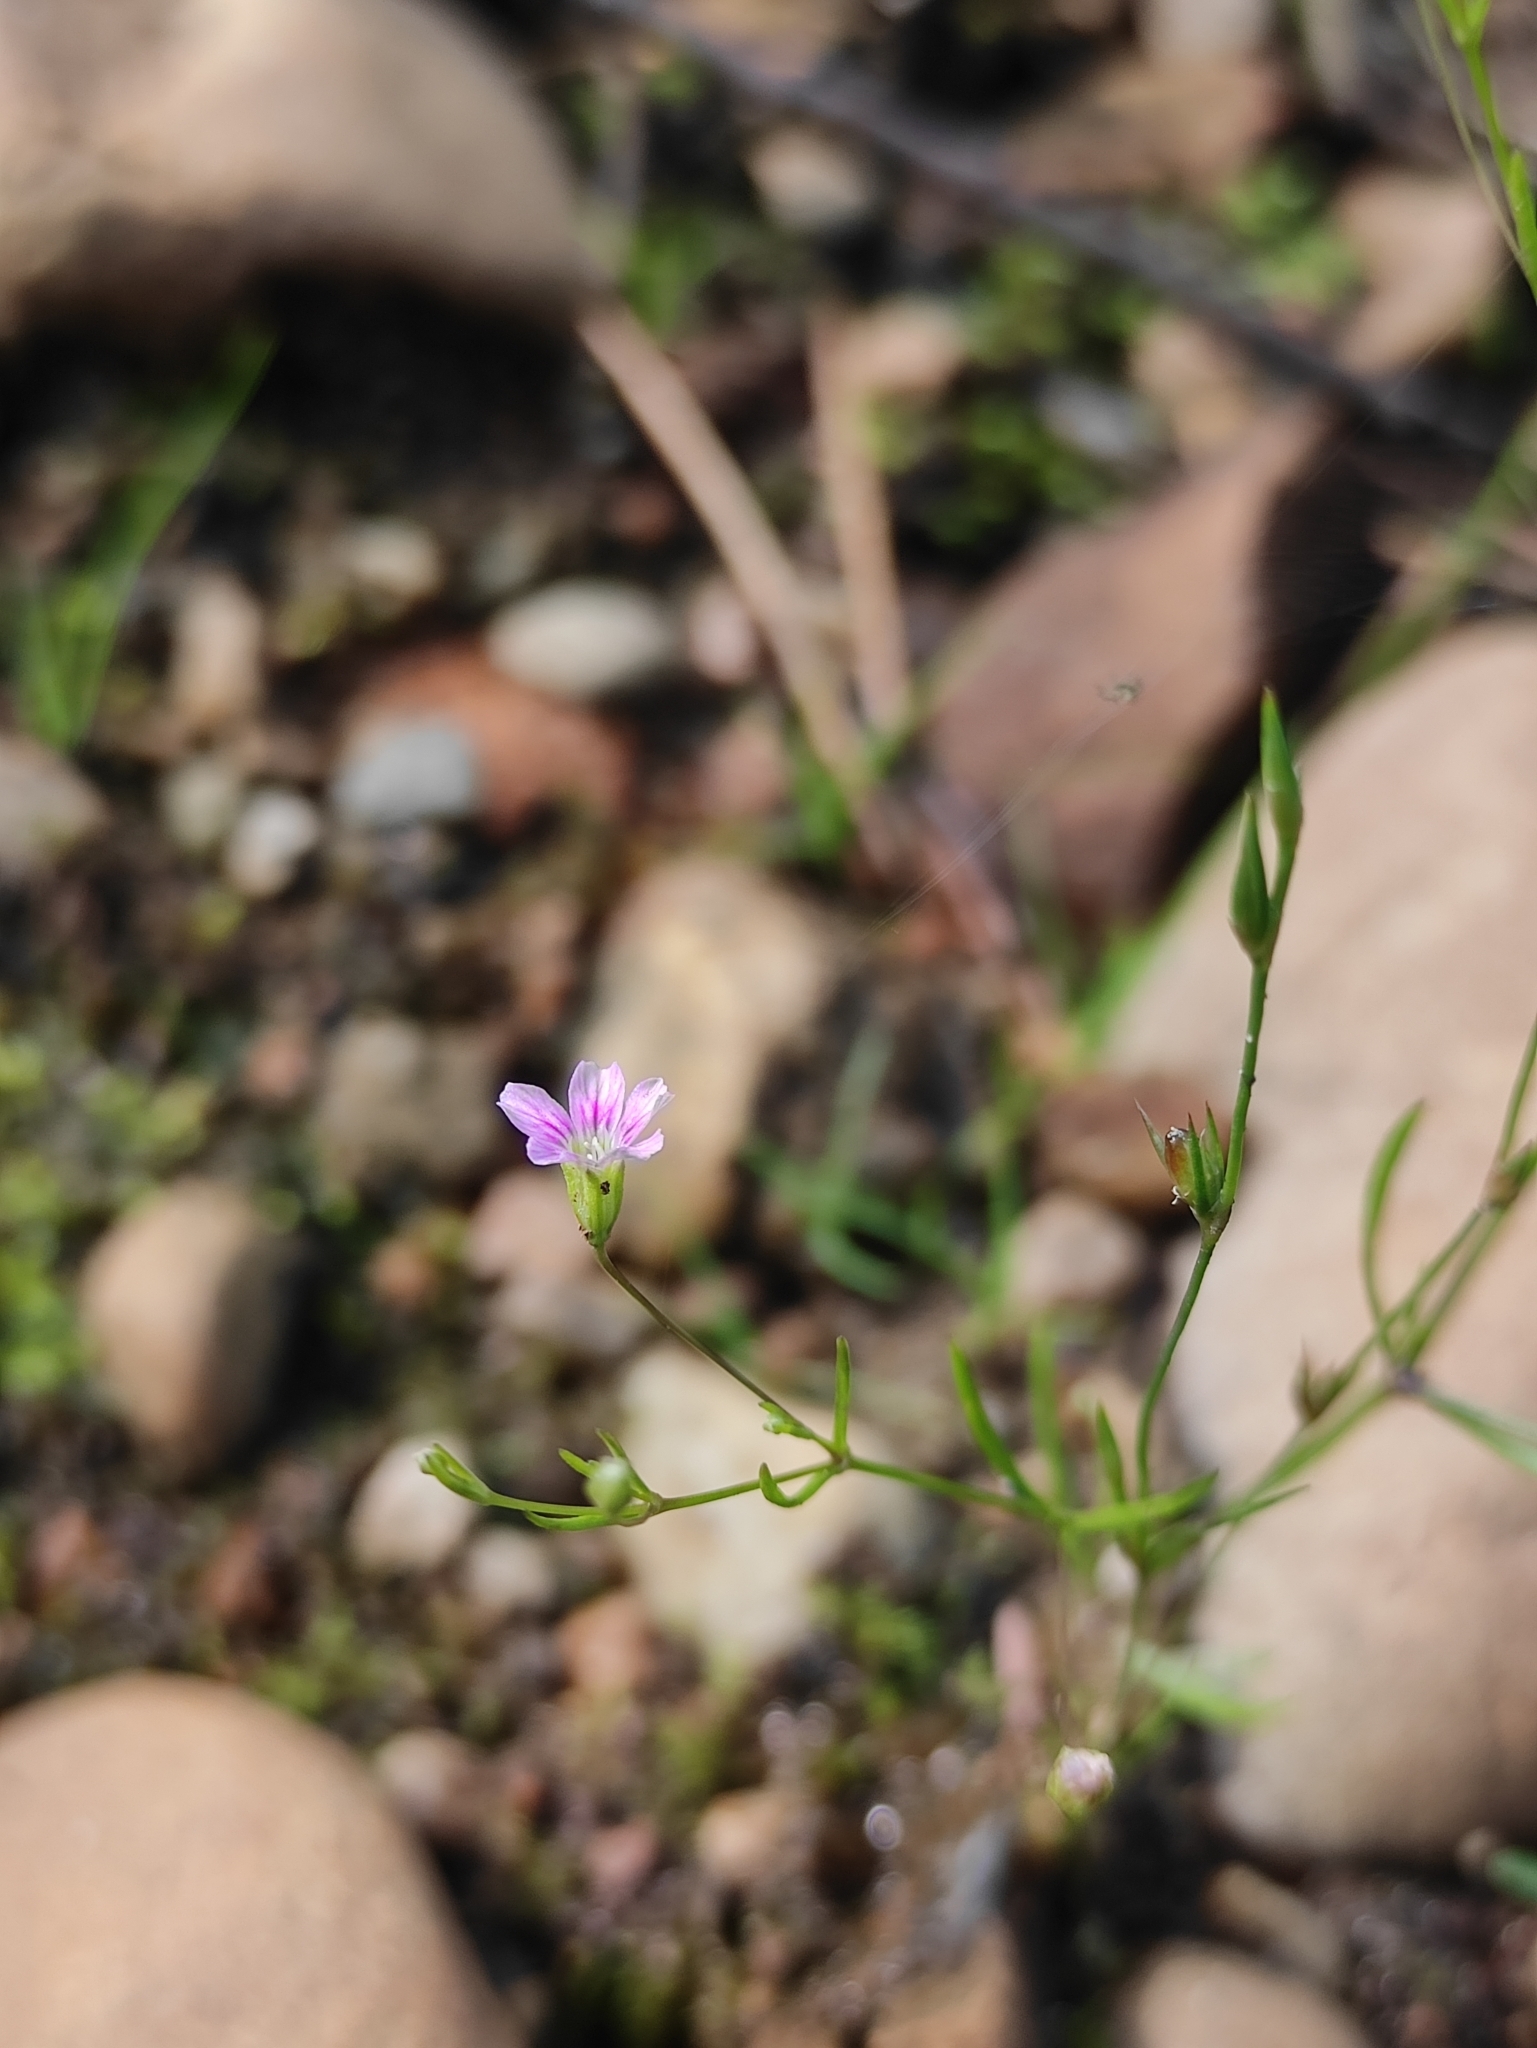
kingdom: Plantae
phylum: Tracheophyta
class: Magnoliopsida
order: Caryophyllales
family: Caryophyllaceae
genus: Psammophiliella
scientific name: Psammophiliella muralis
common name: Cushion baby's-breath
